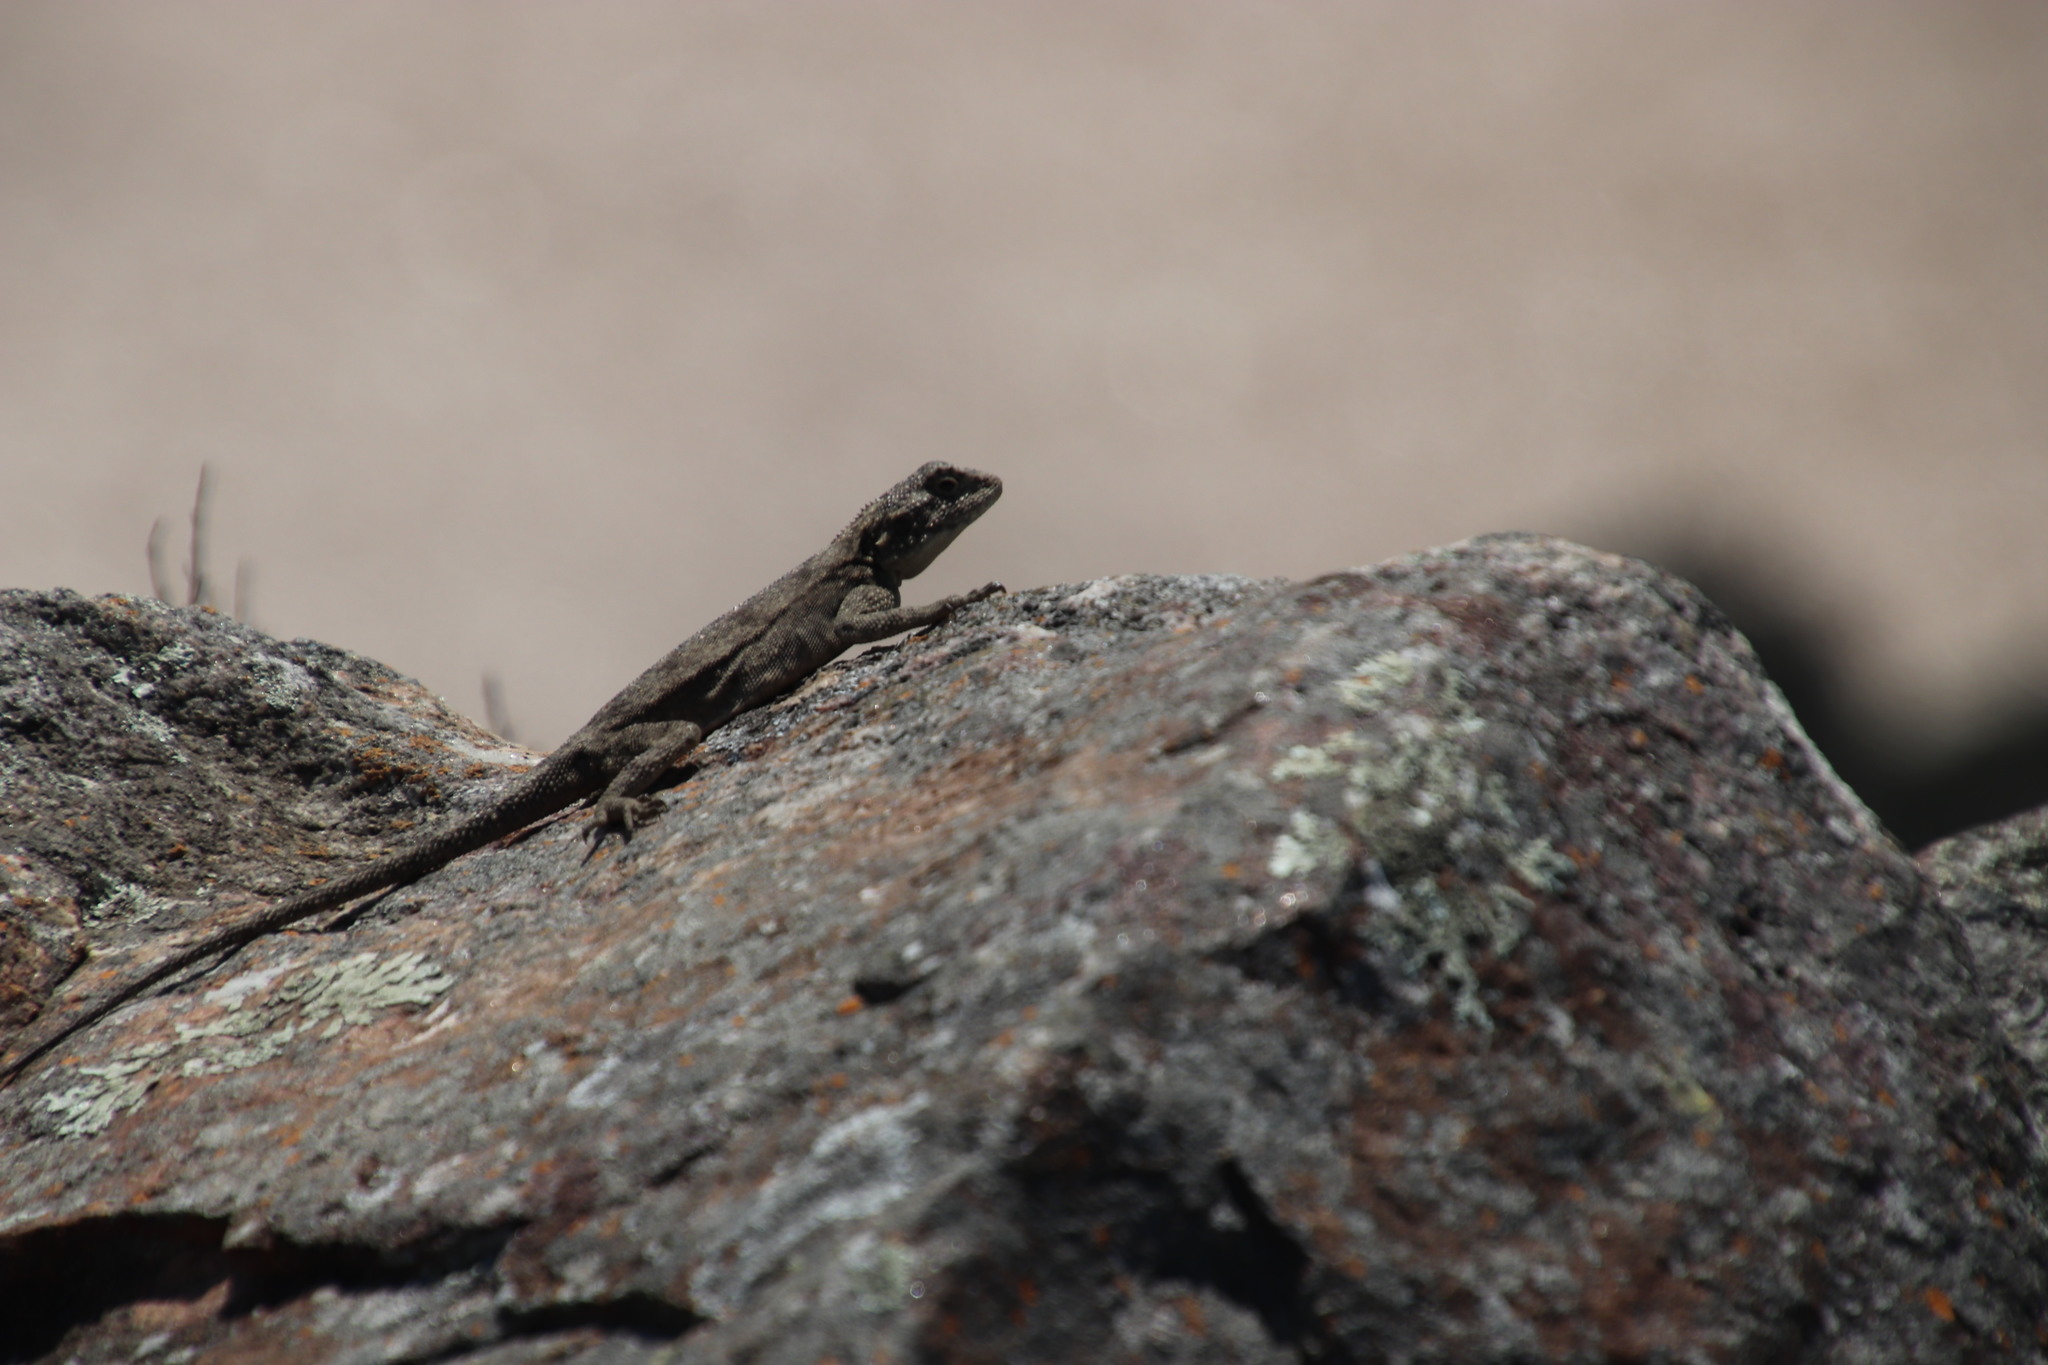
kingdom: Animalia
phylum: Chordata
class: Squamata
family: Agamidae
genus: Agama
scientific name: Agama atra
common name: Southern african rock agama
